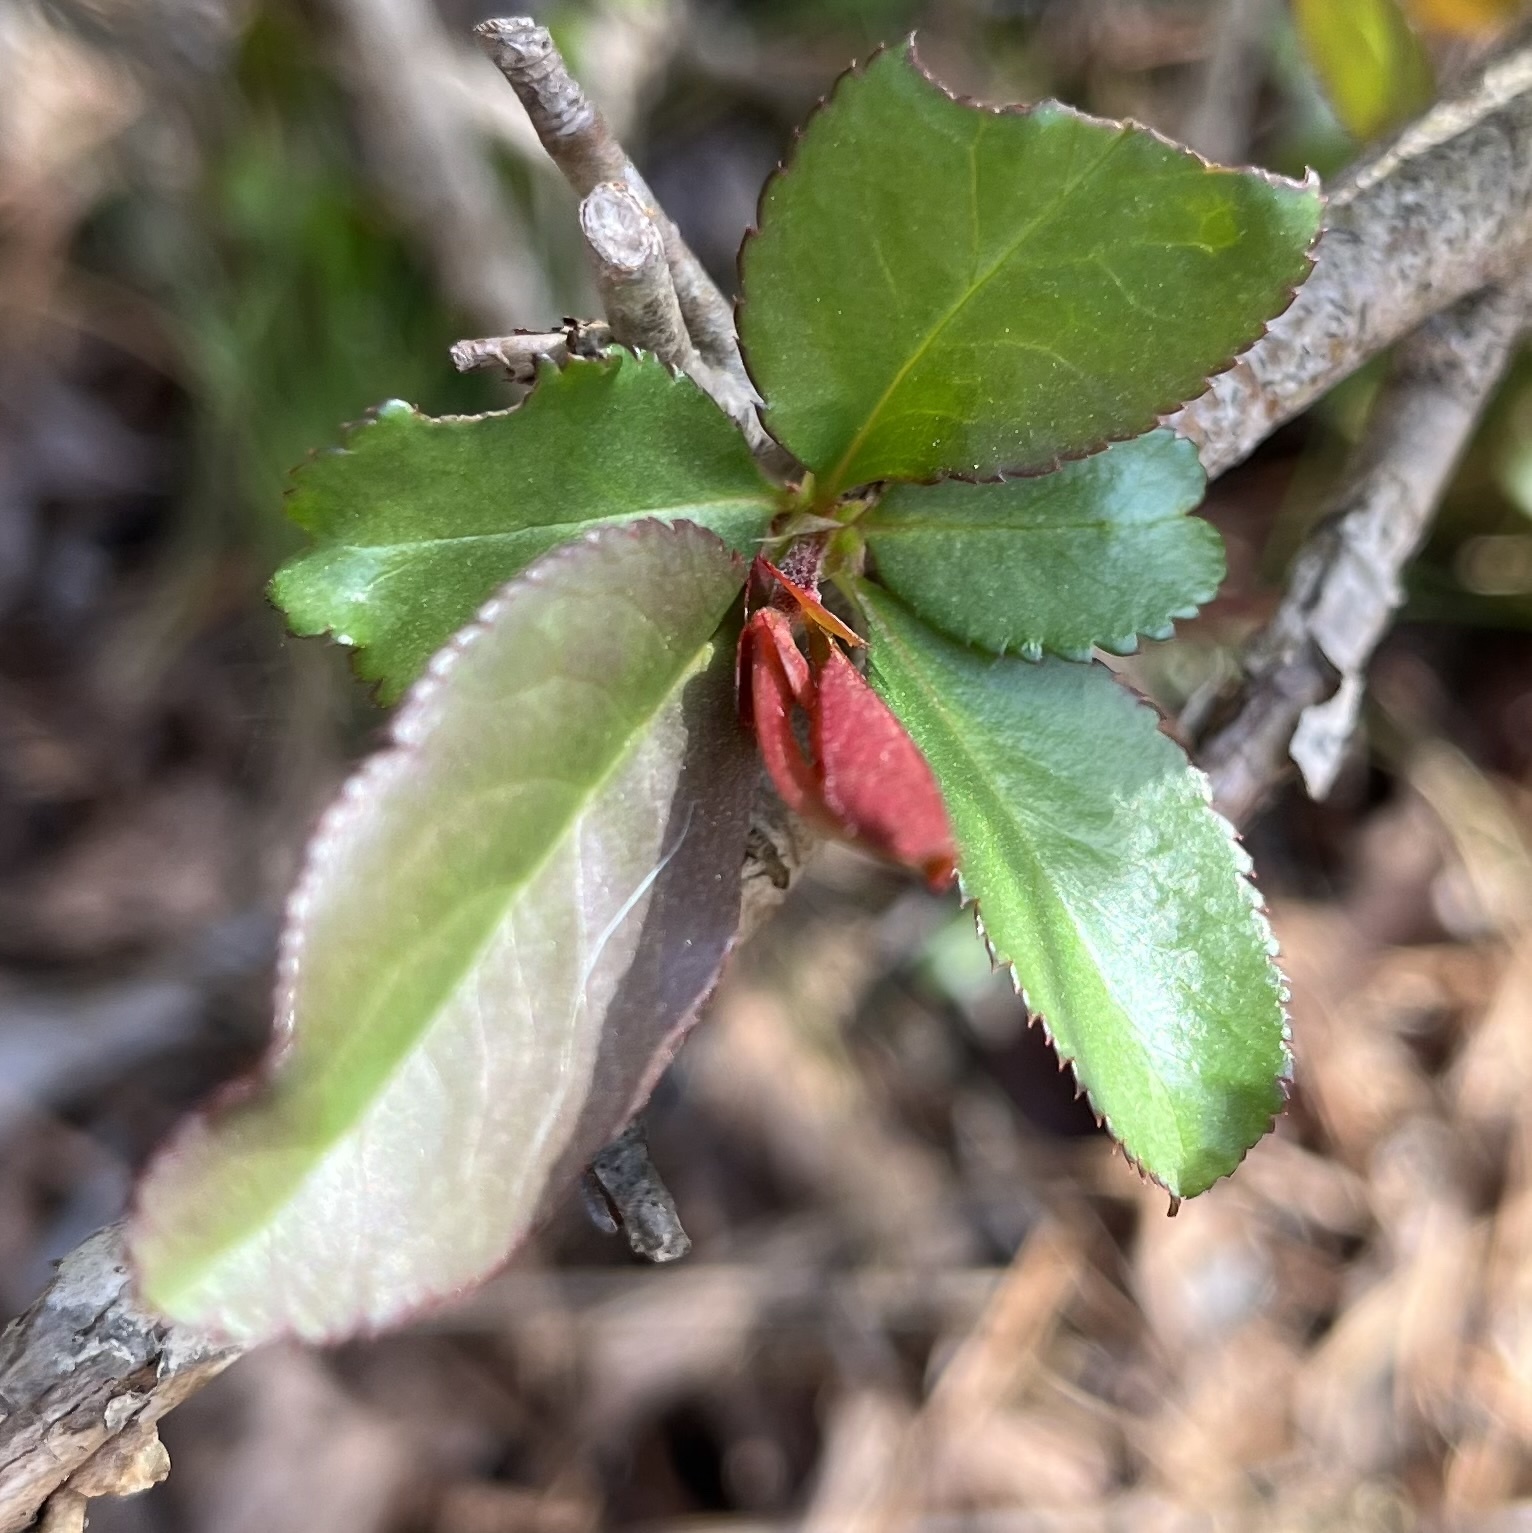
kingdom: Plantae
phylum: Tracheophyta
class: Magnoliopsida
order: Rosales
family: Rosaceae
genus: Chaenomeles
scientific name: Chaenomeles speciosa
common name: Japanese quince
